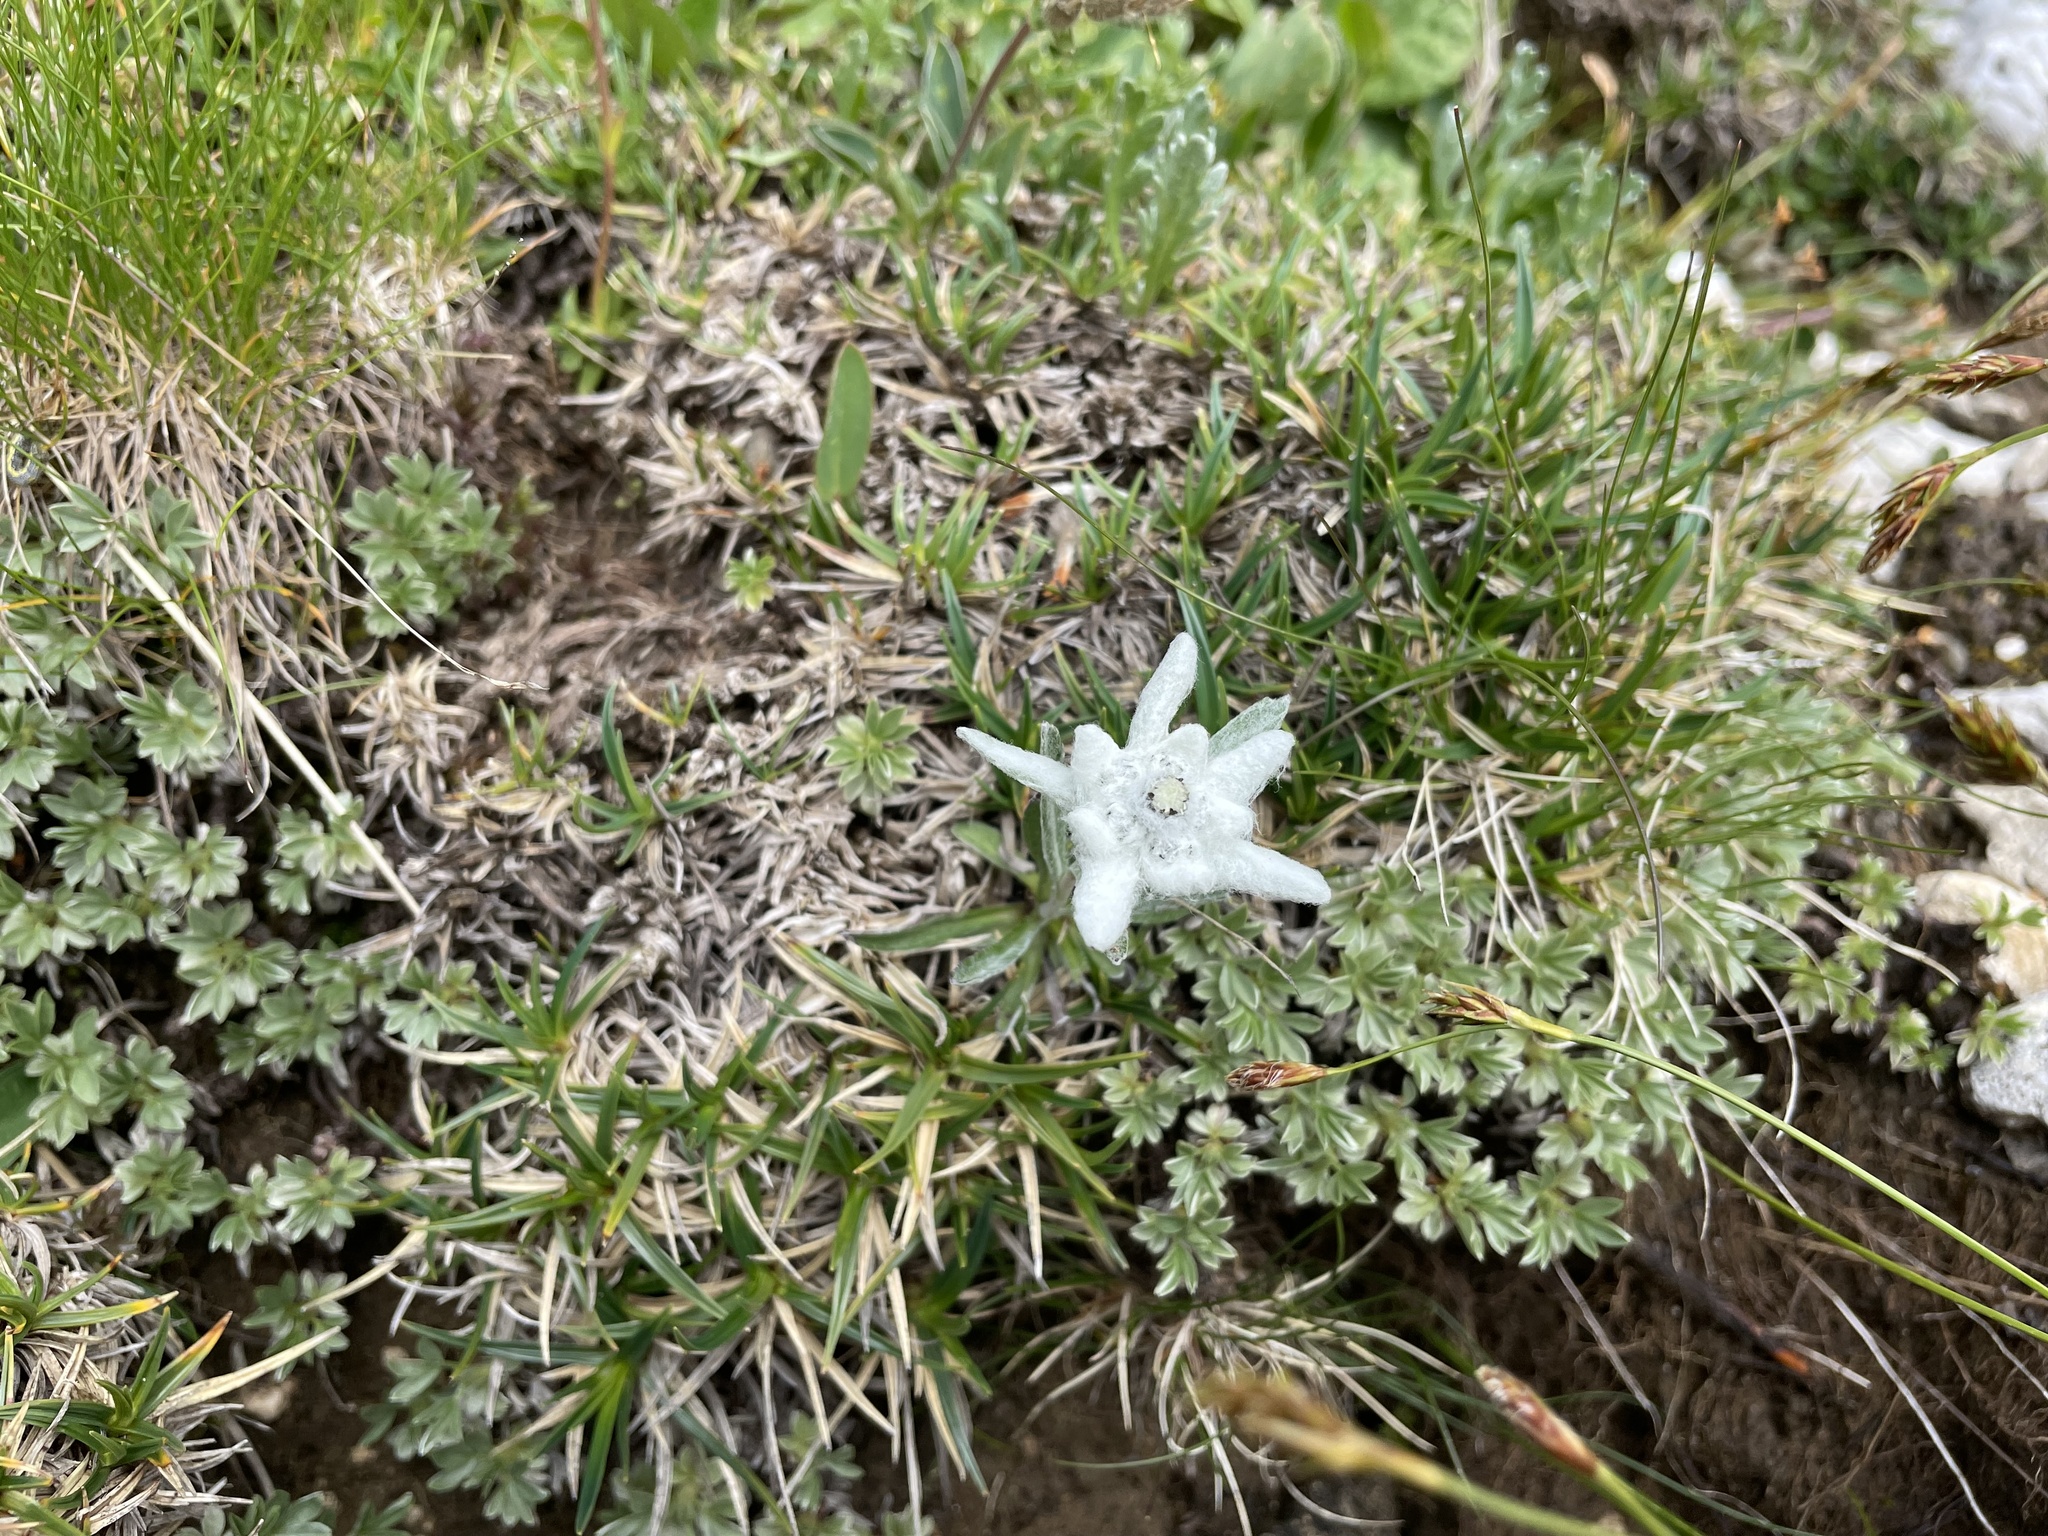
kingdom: Plantae
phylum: Tracheophyta
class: Magnoliopsida
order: Asterales
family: Asteraceae
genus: Leontopodium
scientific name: Leontopodium nivale
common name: Edelweiss
